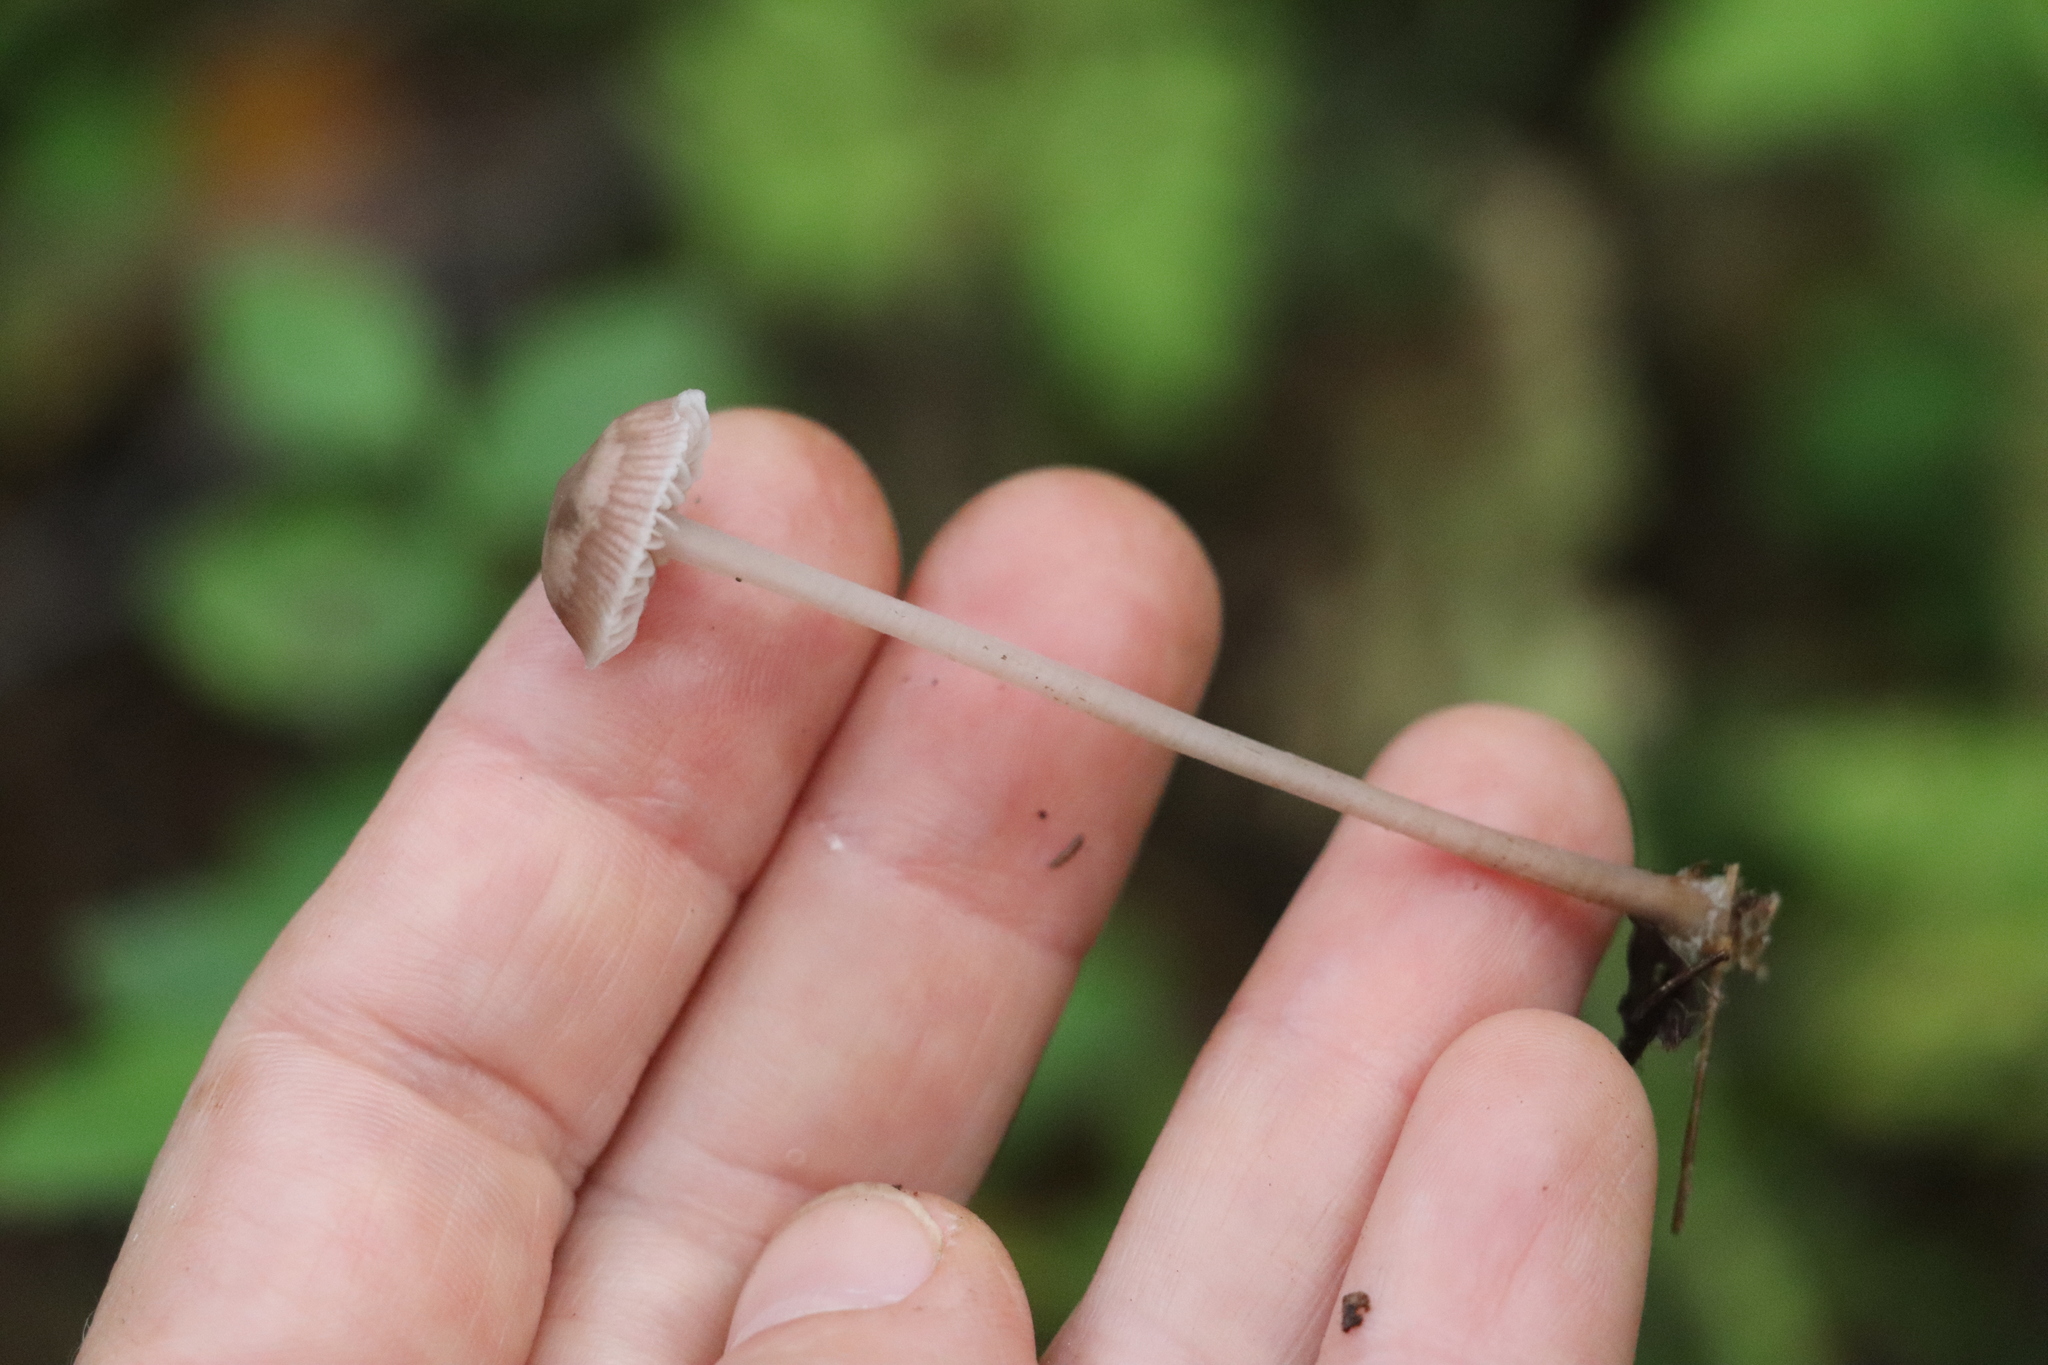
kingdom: Fungi
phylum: Basidiomycota
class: Agaricomycetes
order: Agaricales
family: Mycenaceae
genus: Mycena
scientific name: Mycena pura
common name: Lilac bonnet
